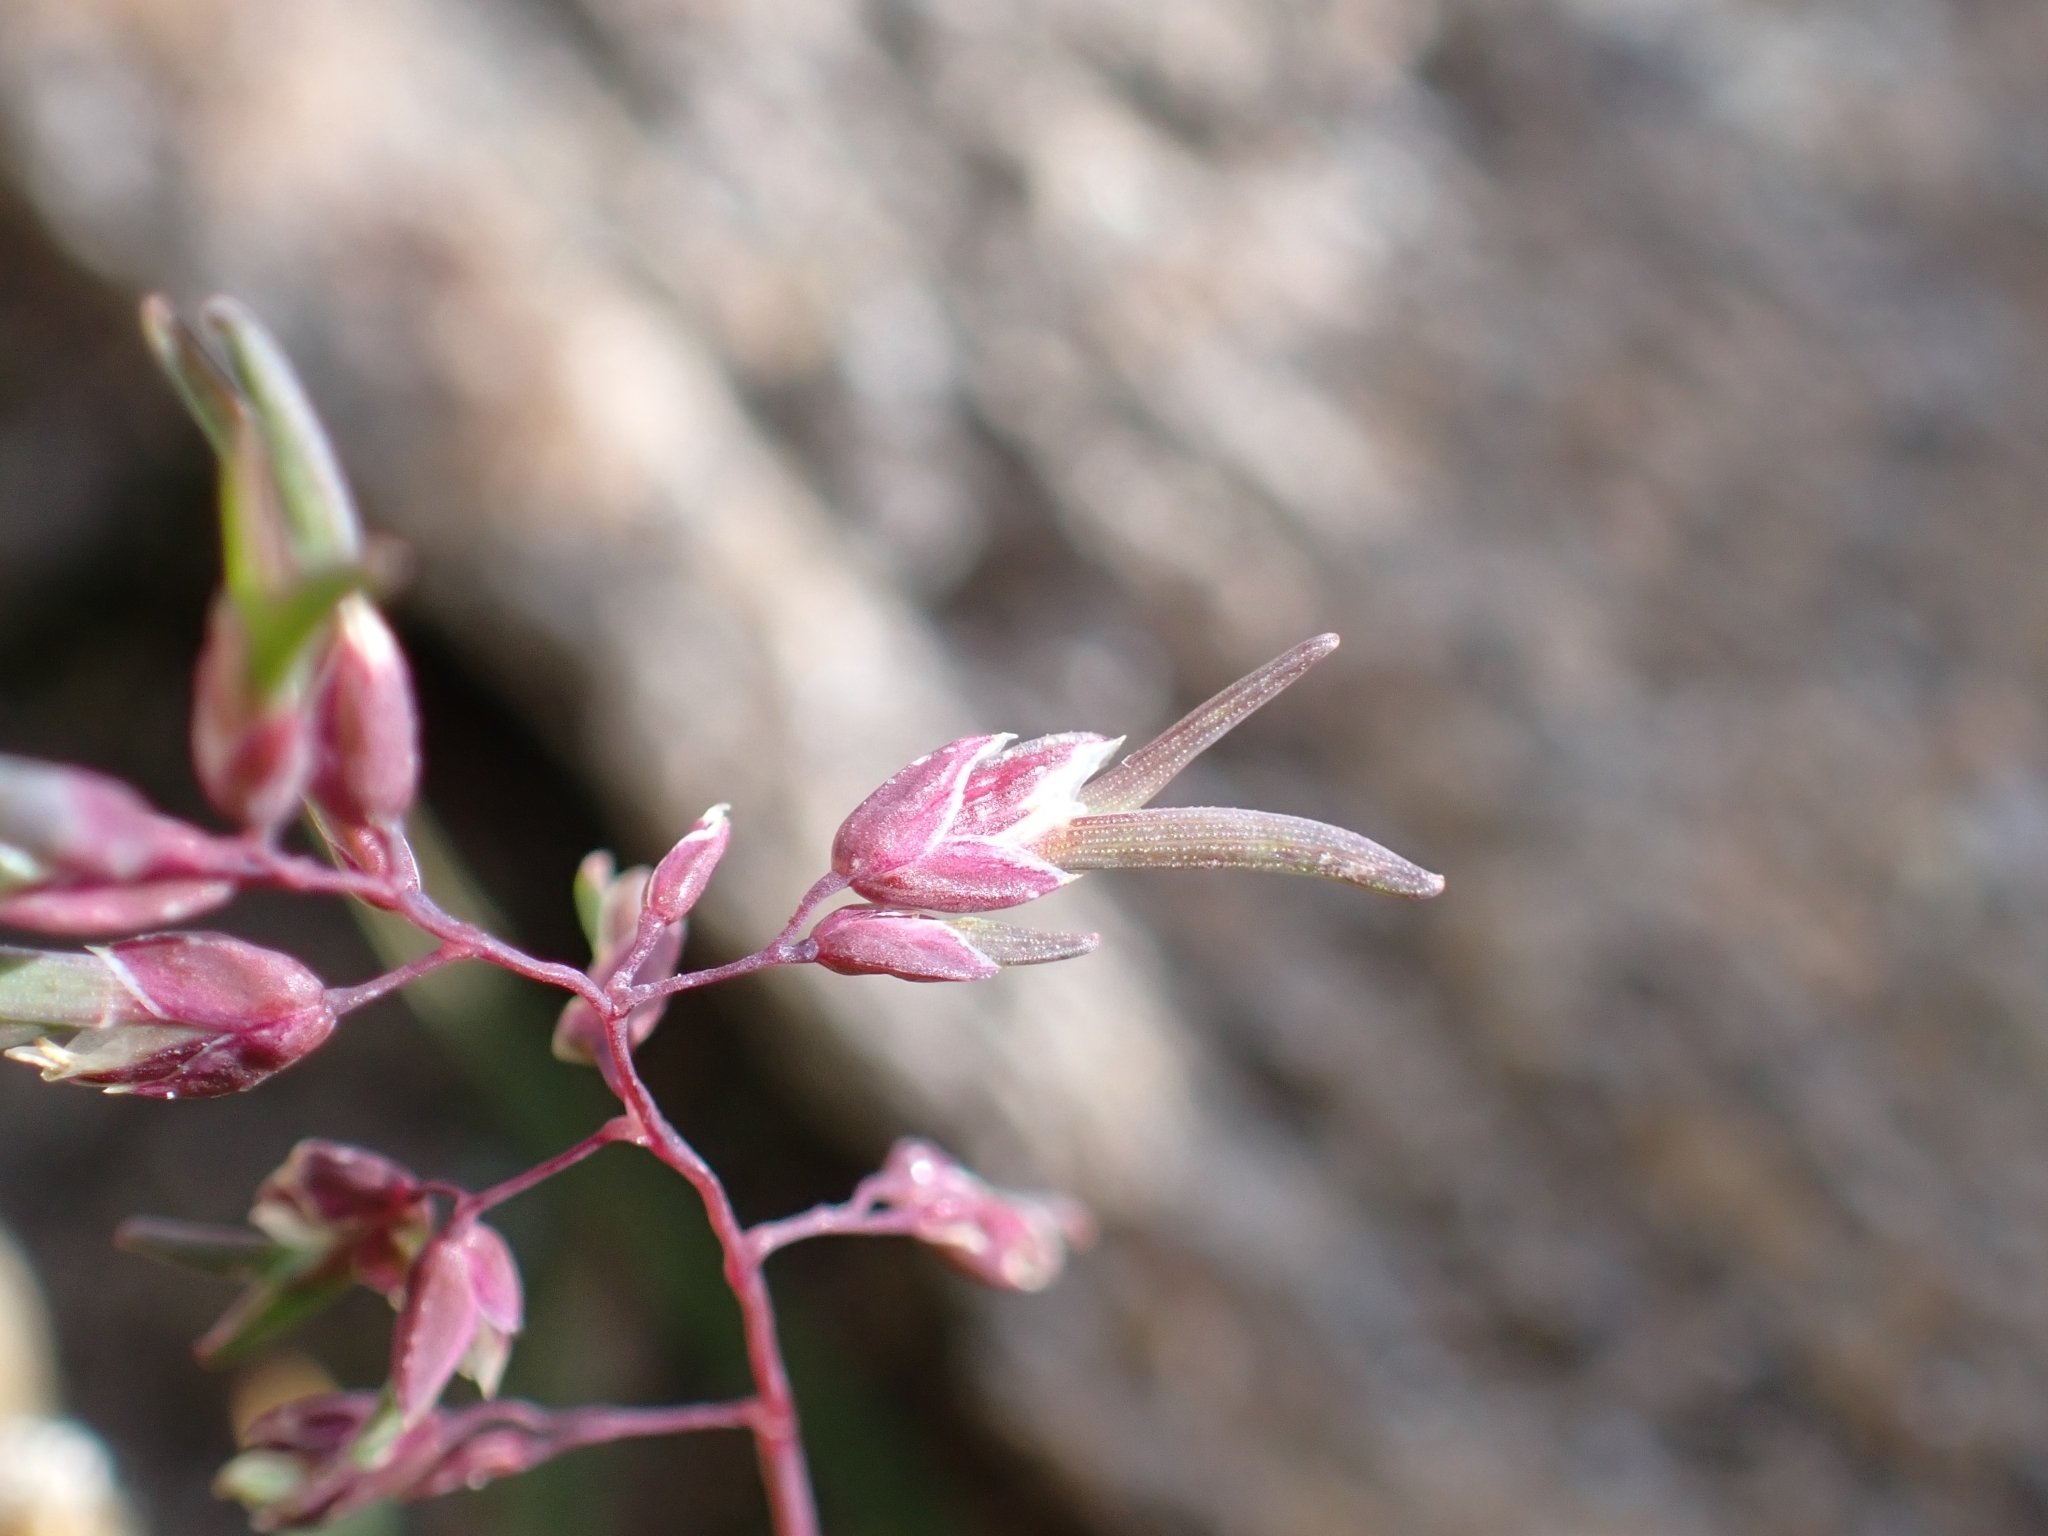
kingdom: Plantae
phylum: Tracheophyta
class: Liliopsida
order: Poales
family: Poaceae
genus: Poa
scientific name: Poa alpina
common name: Alpine bluegrass
